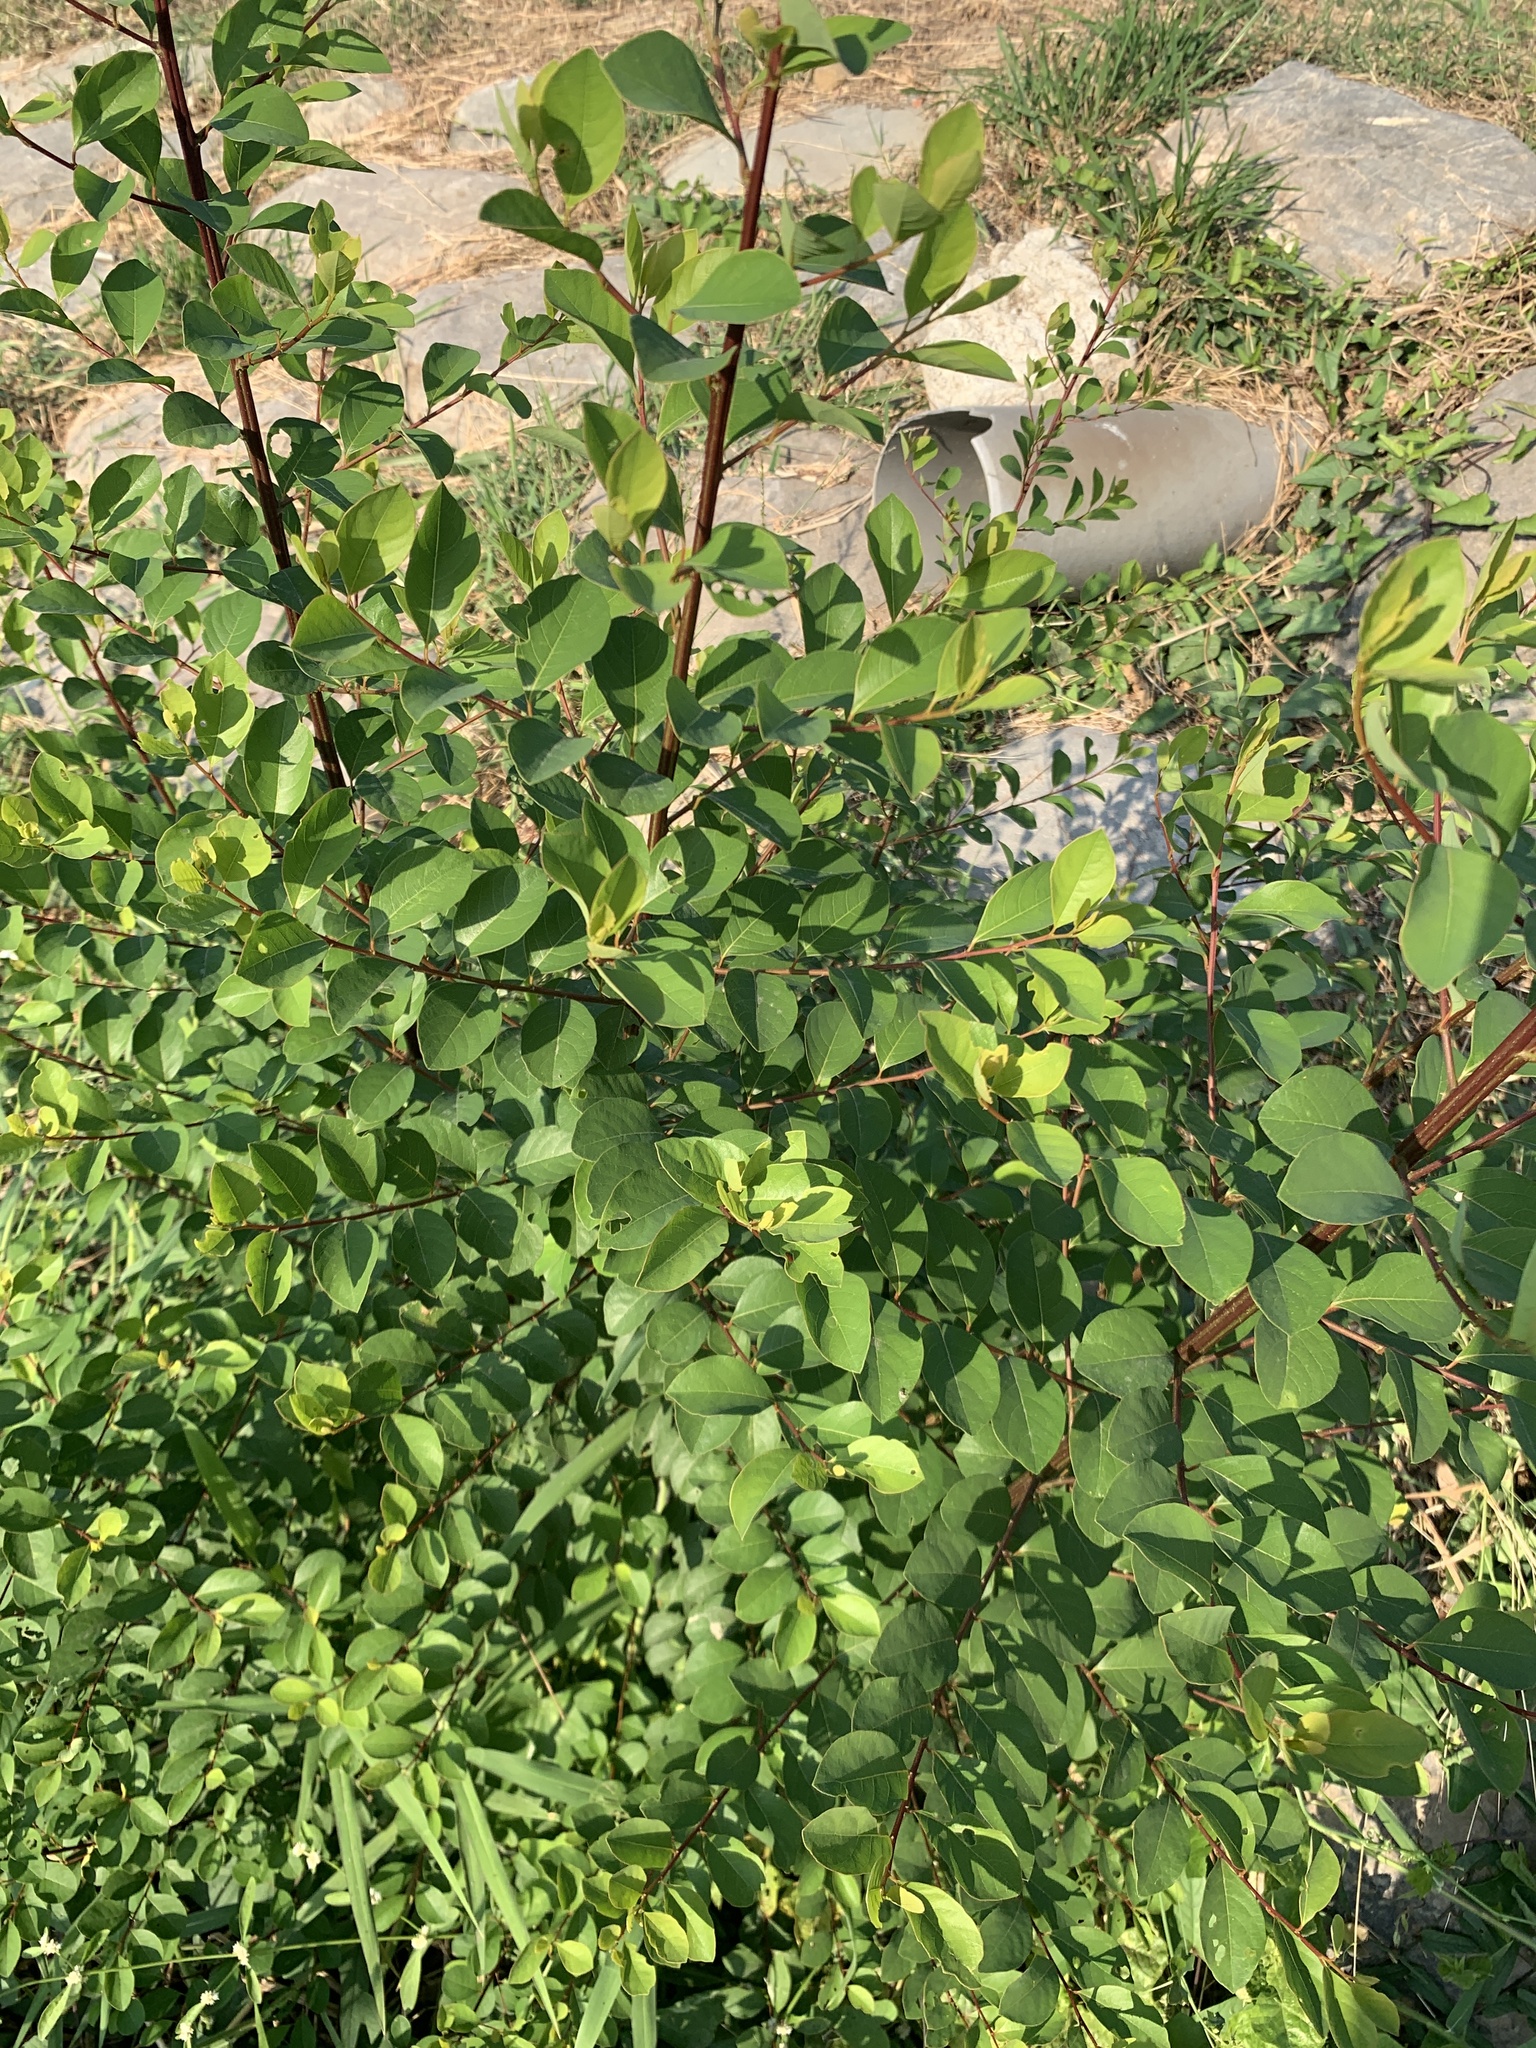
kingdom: Plantae
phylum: Tracheophyta
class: Magnoliopsida
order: Malpighiales
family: Phyllanthaceae
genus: Flueggea
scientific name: Flueggea virosa
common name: Common bushweed
